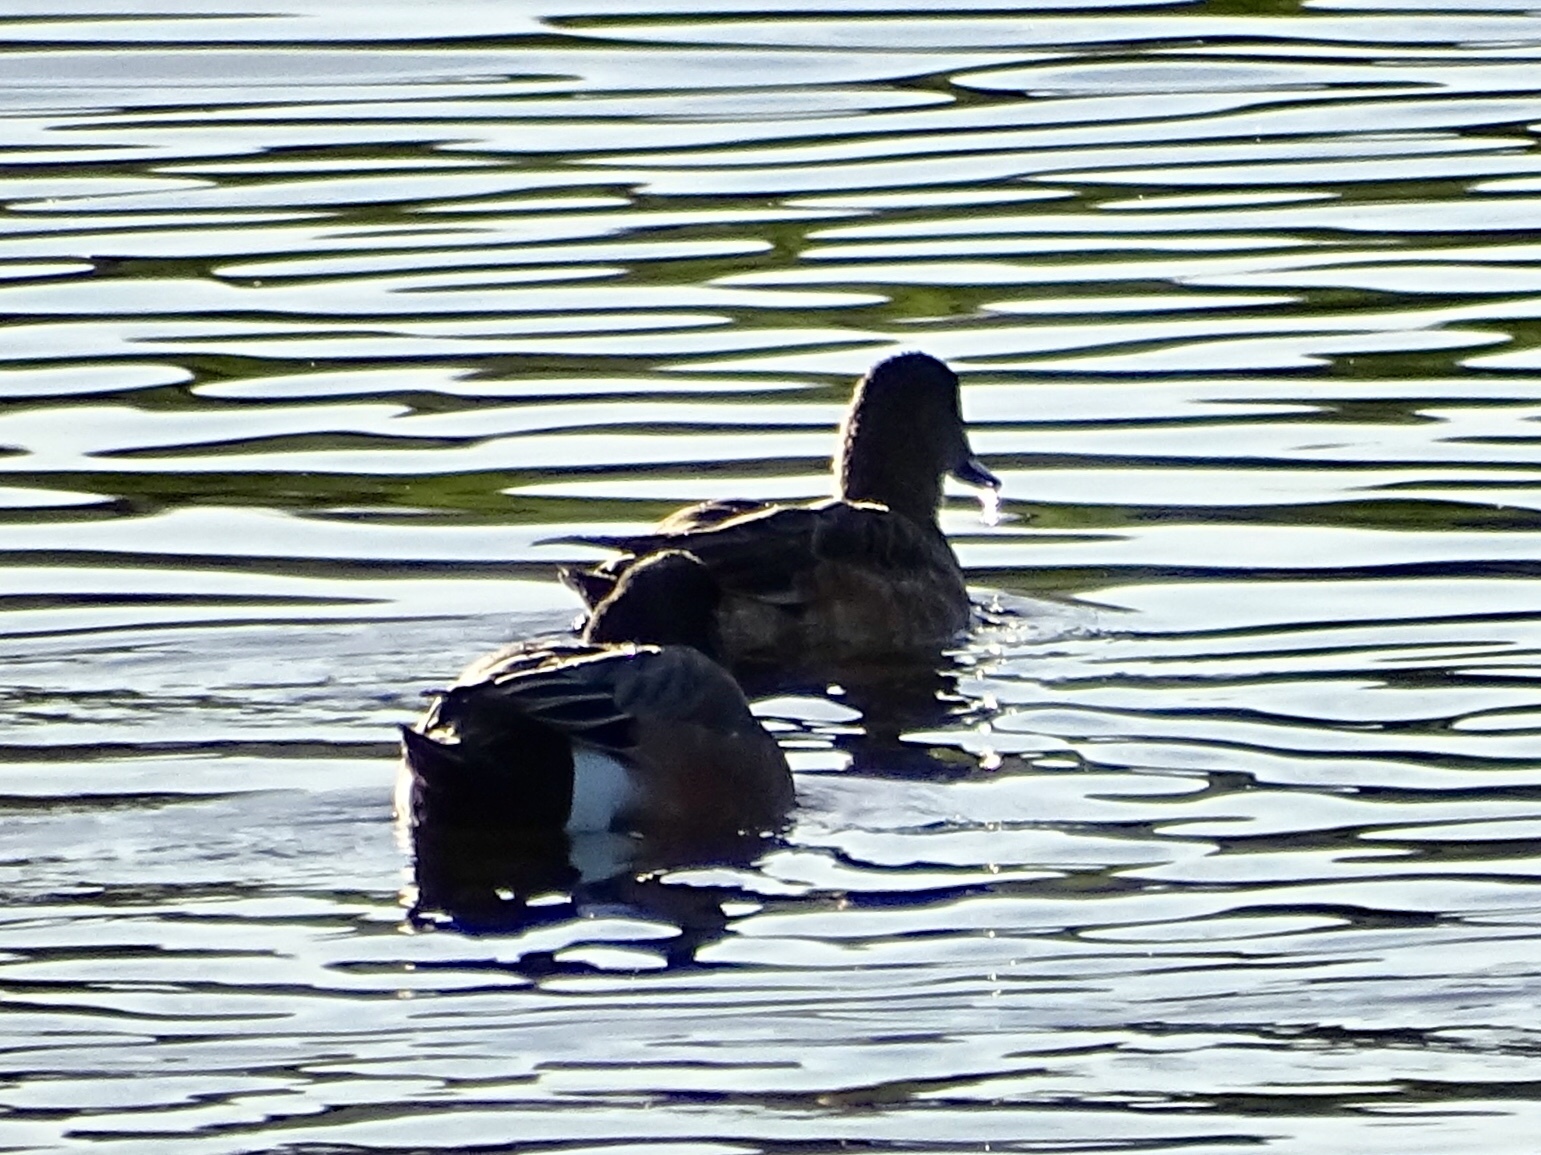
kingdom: Animalia
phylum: Chordata
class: Aves
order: Anseriformes
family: Anatidae
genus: Mareca
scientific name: Mareca americana
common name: American wigeon
